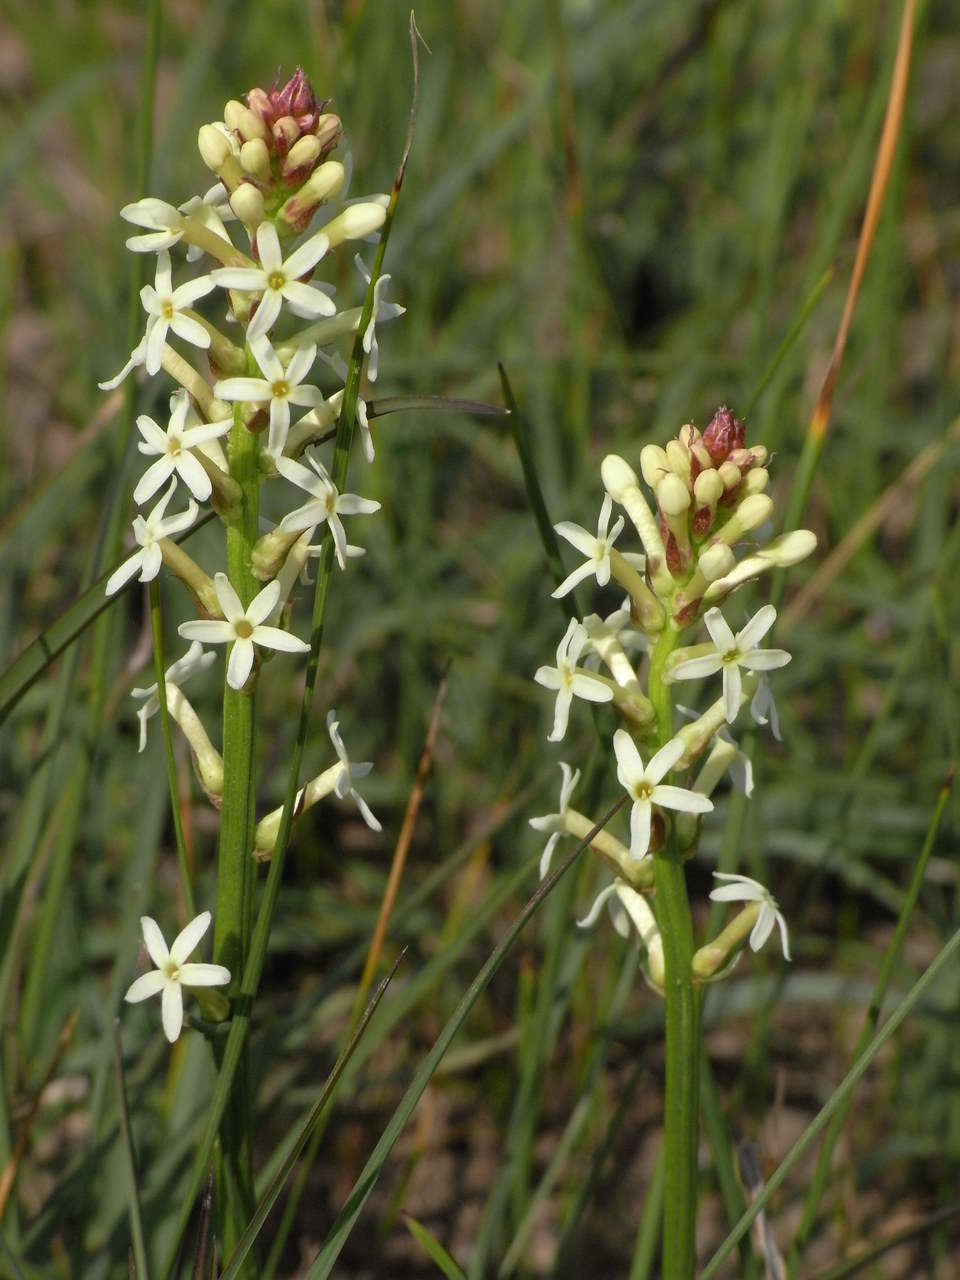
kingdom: Plantae
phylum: Tracheophyta
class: Magnoliopsida
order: Celastrales
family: Celastraceae
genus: Stackhousia
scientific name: Stackhousia subterranea
